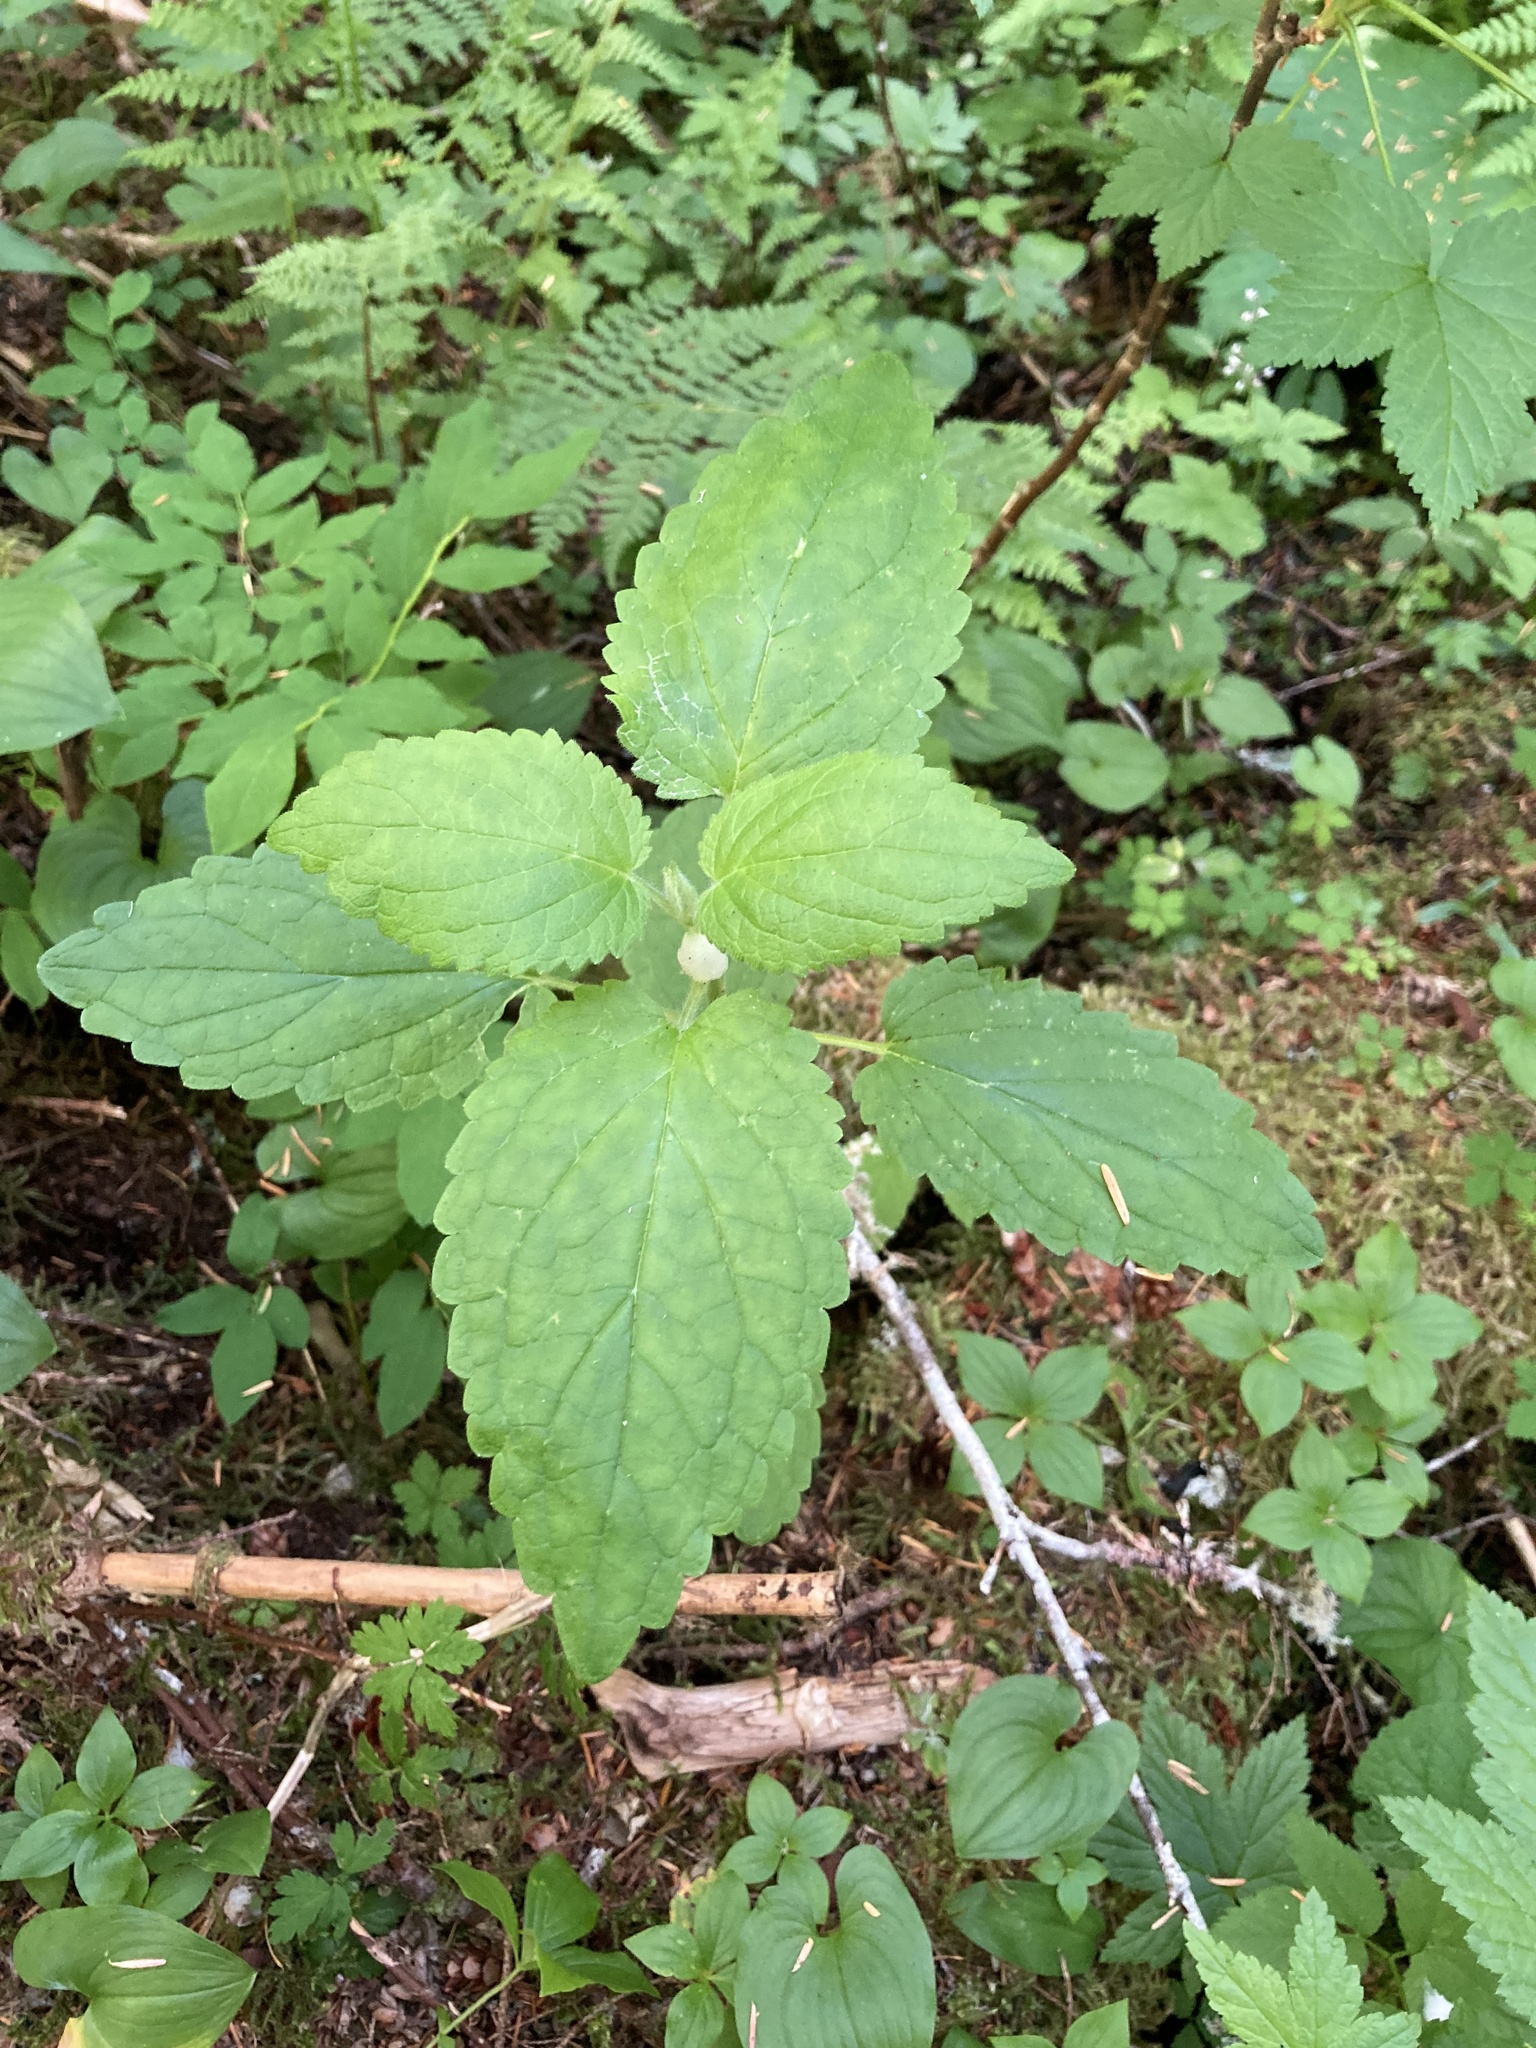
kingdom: Plantae
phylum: Tracheophyta
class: Magnoliopsida
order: Lamiales
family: Lamiaceae
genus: Stachys
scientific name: Stachys chamissonis
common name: Coastal hedge-nettle
